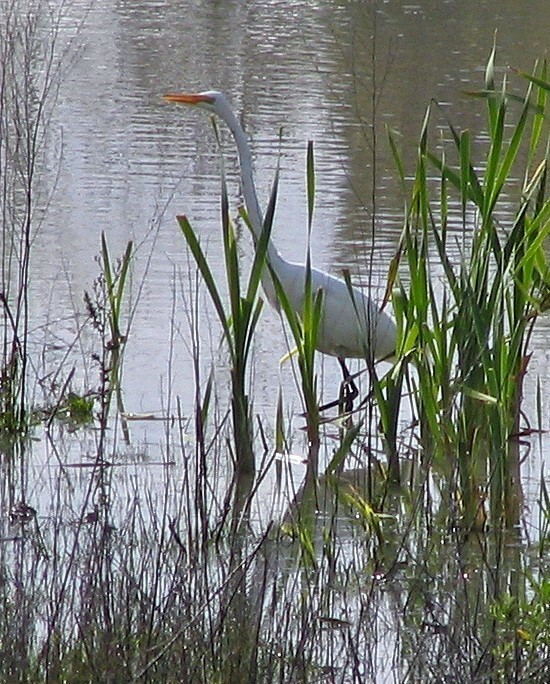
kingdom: Animalia
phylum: Chordata
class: Aves
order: Pelecaniformes
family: Ardeidae
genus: Ardea
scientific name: Ardea alba
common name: Great egret
